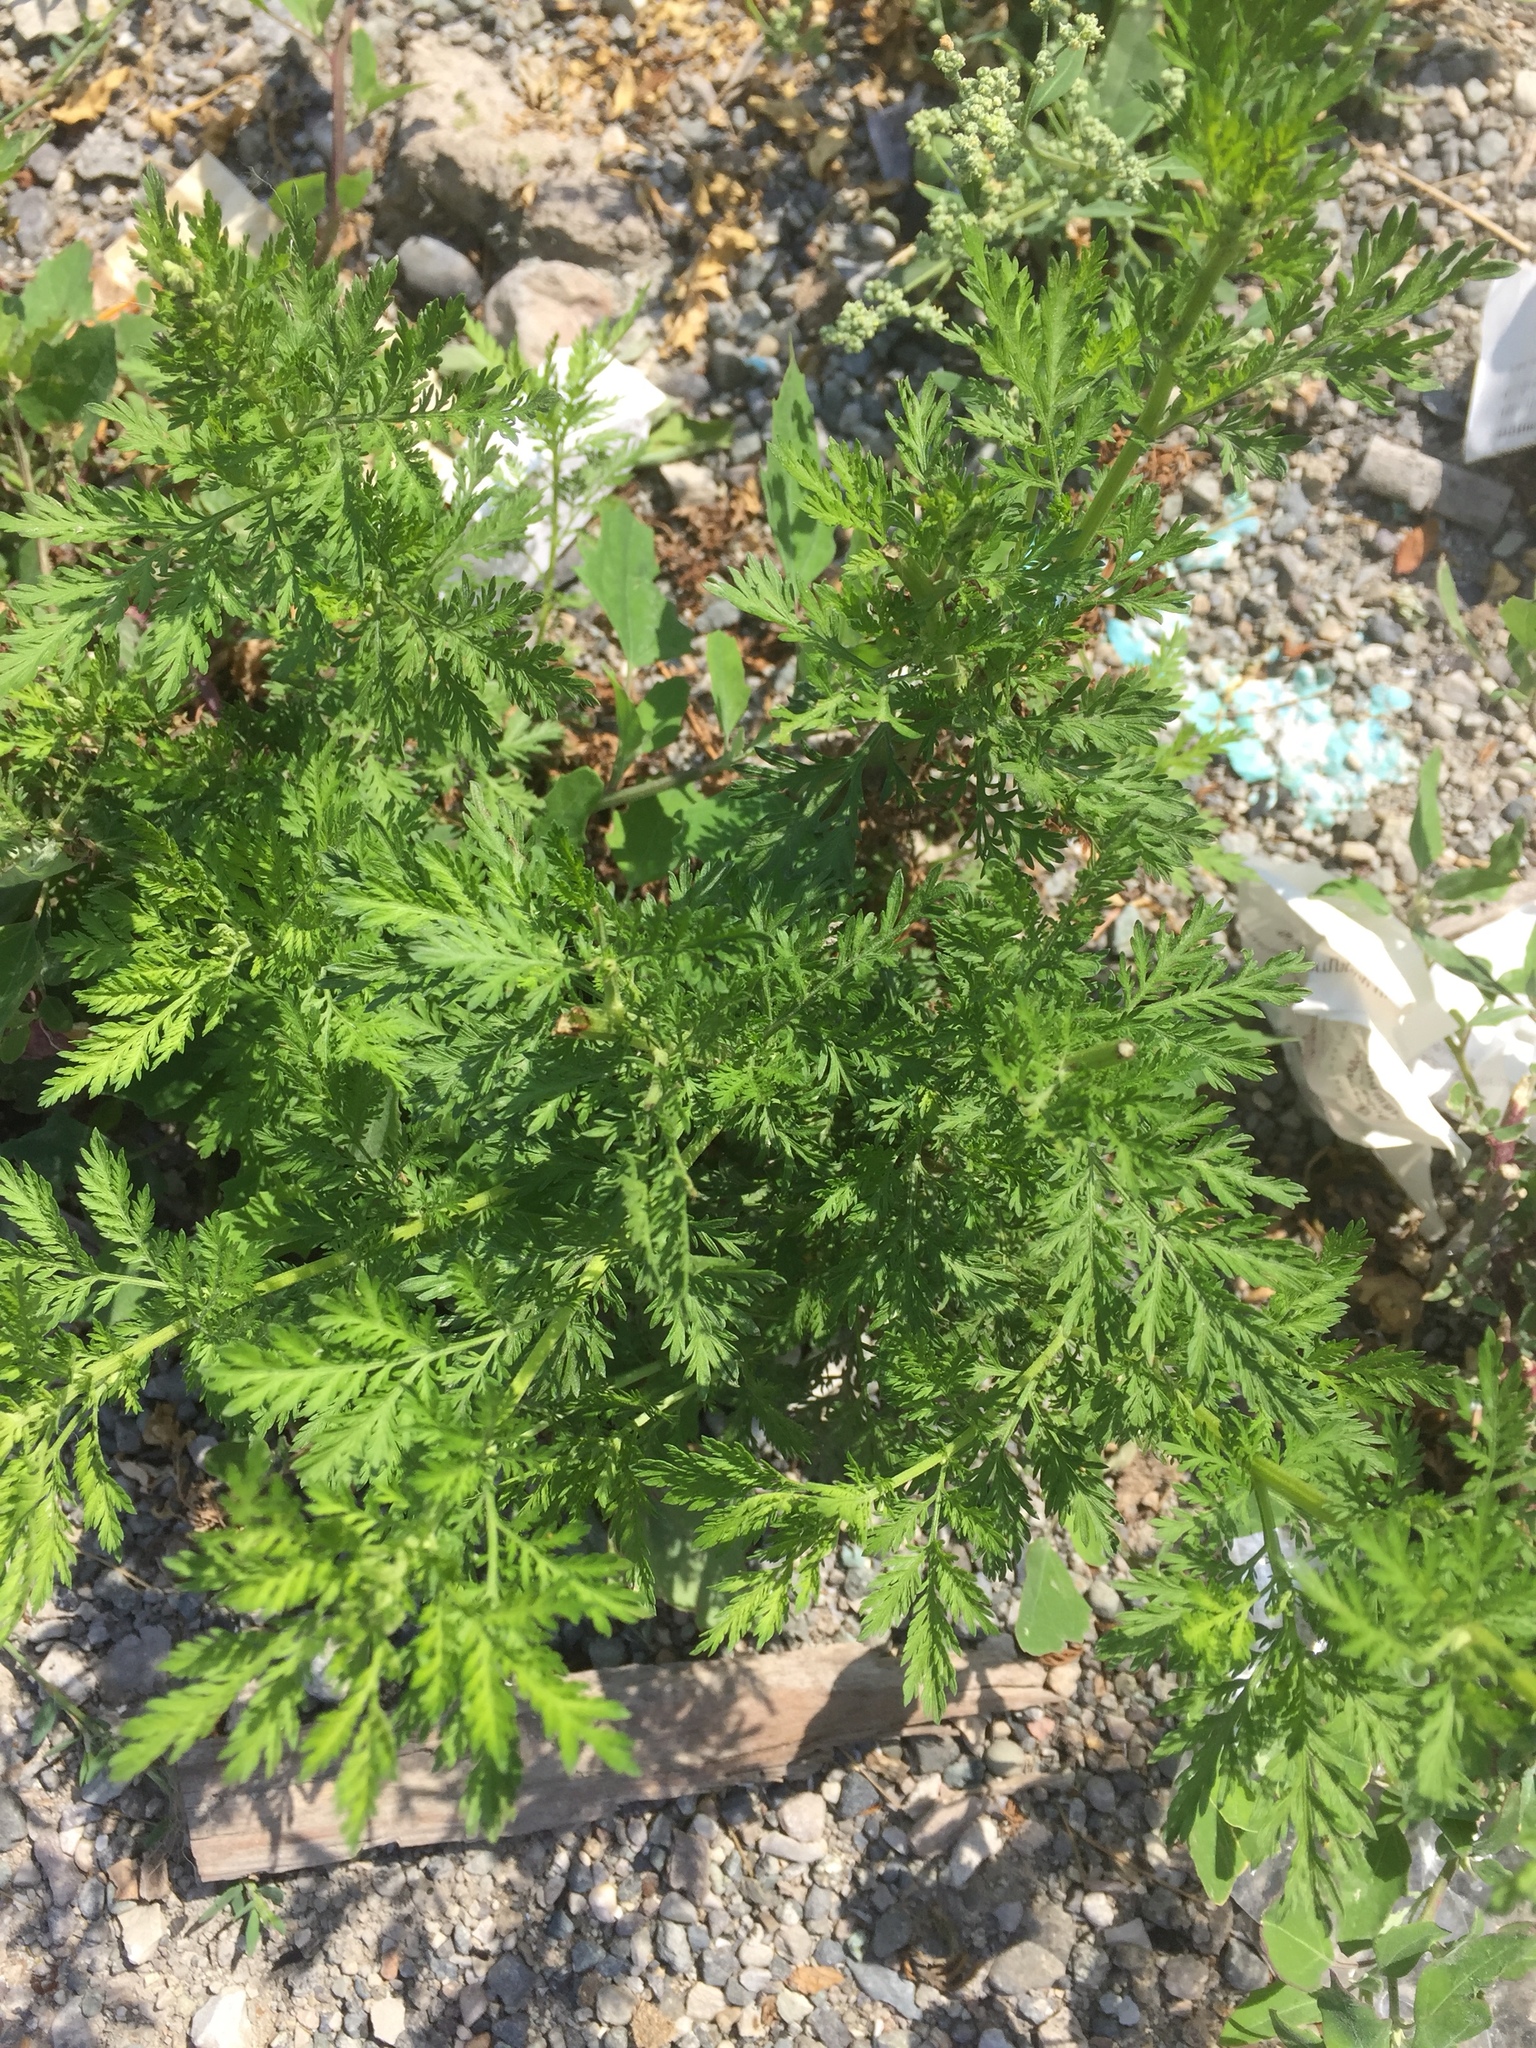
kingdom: Plantae
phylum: Tracheophyta
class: Magnoliopsida
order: Asterales
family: Asteraceae
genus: Artemisia
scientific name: Artemisia annua
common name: Sweet sagewort
